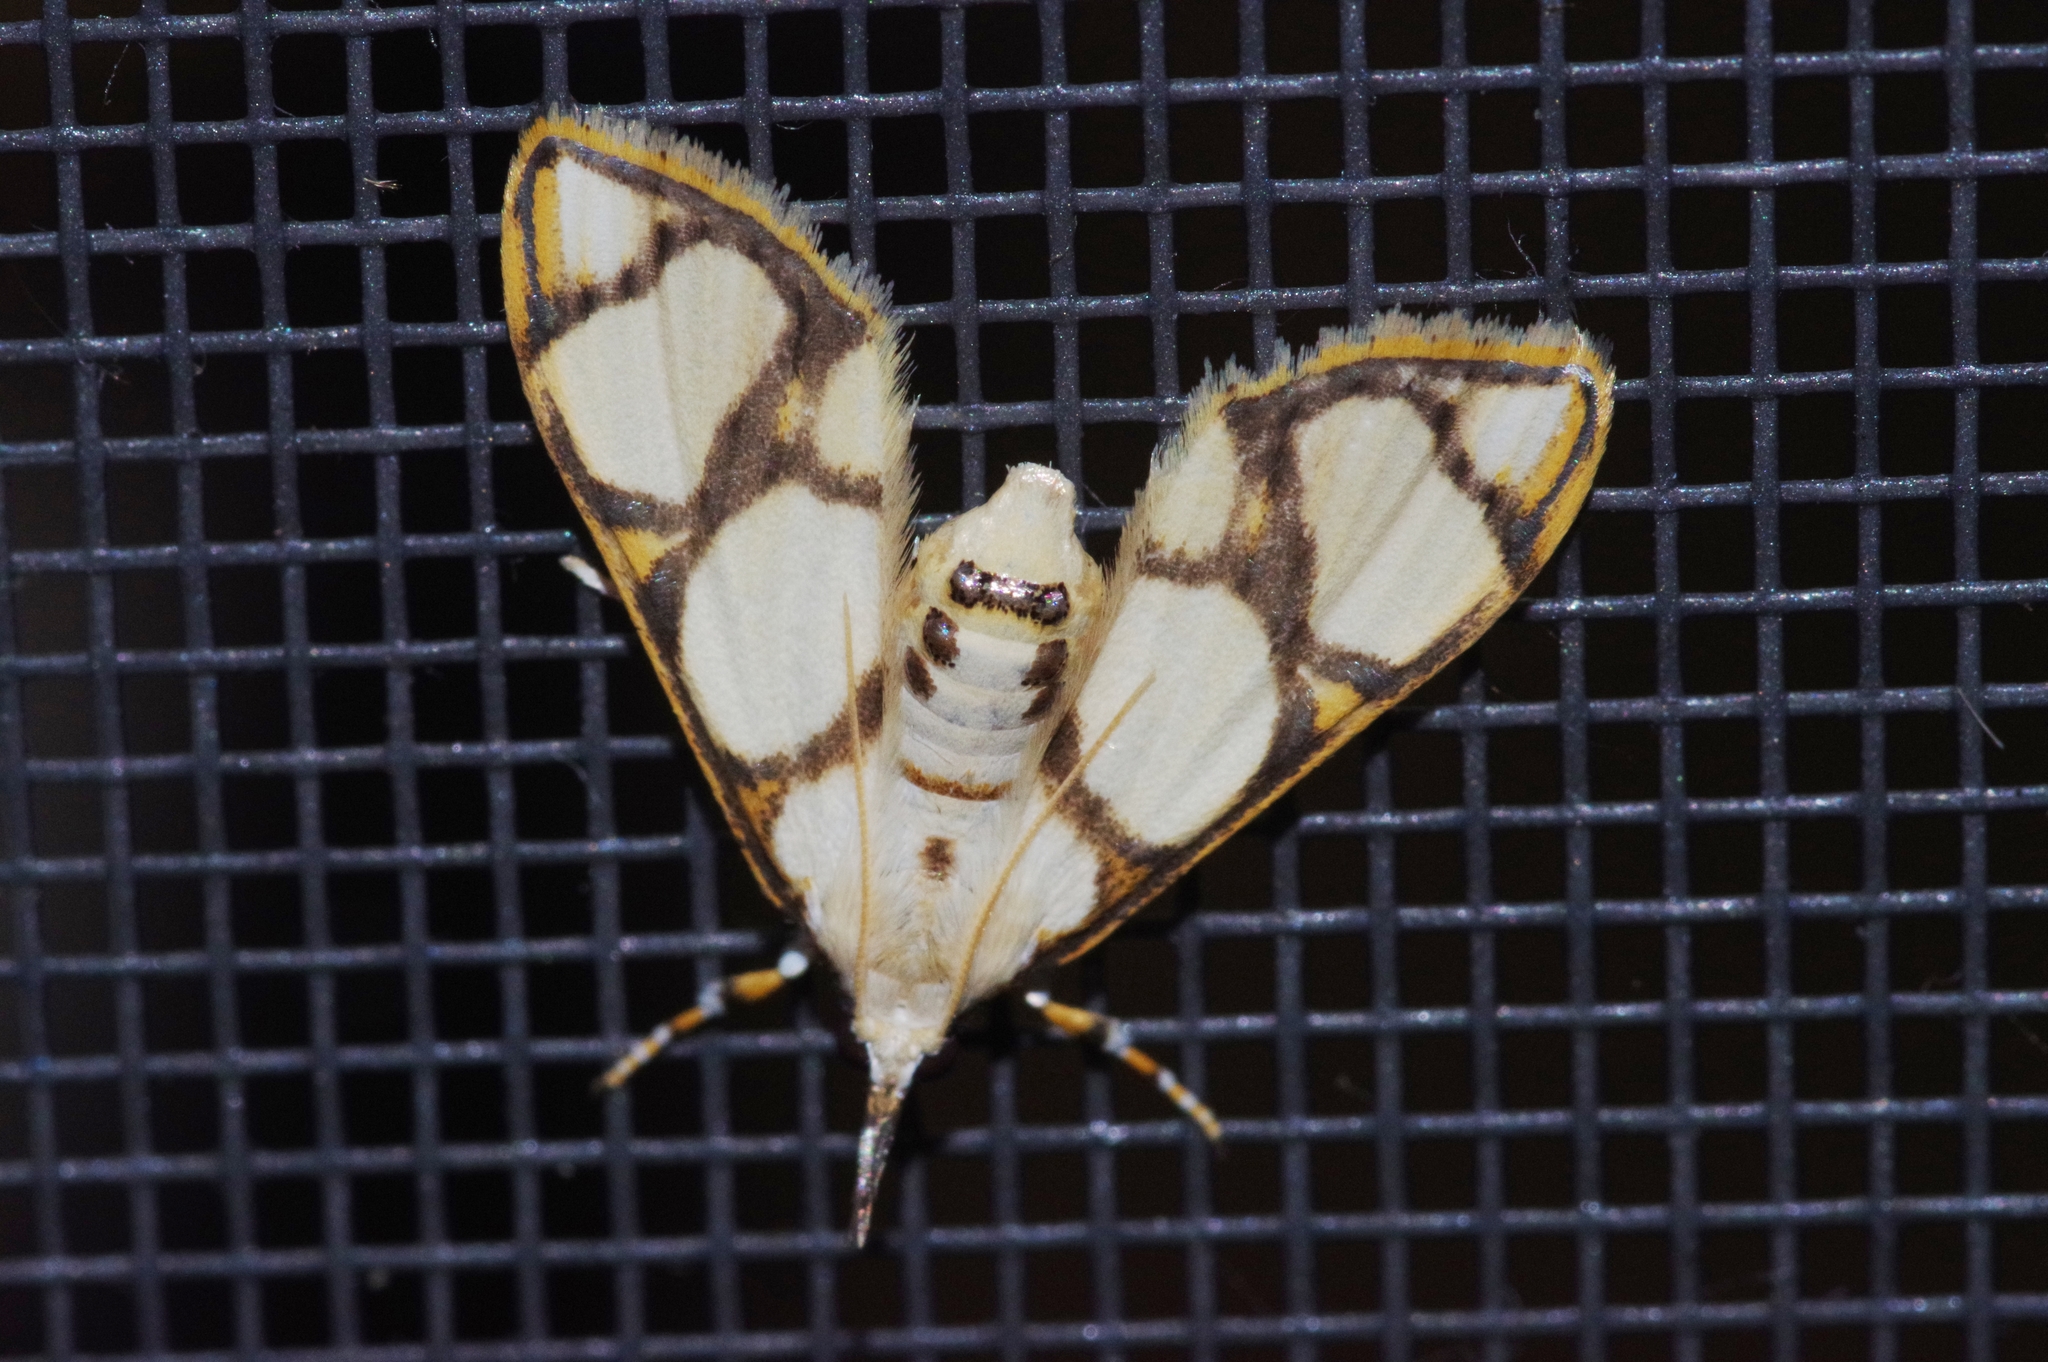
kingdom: Animalia
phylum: Arthropoda
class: Insecta
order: Lepidoptera
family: Crambidae
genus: Cirrhochrista
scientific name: Cirrhochrista kosemponialis
